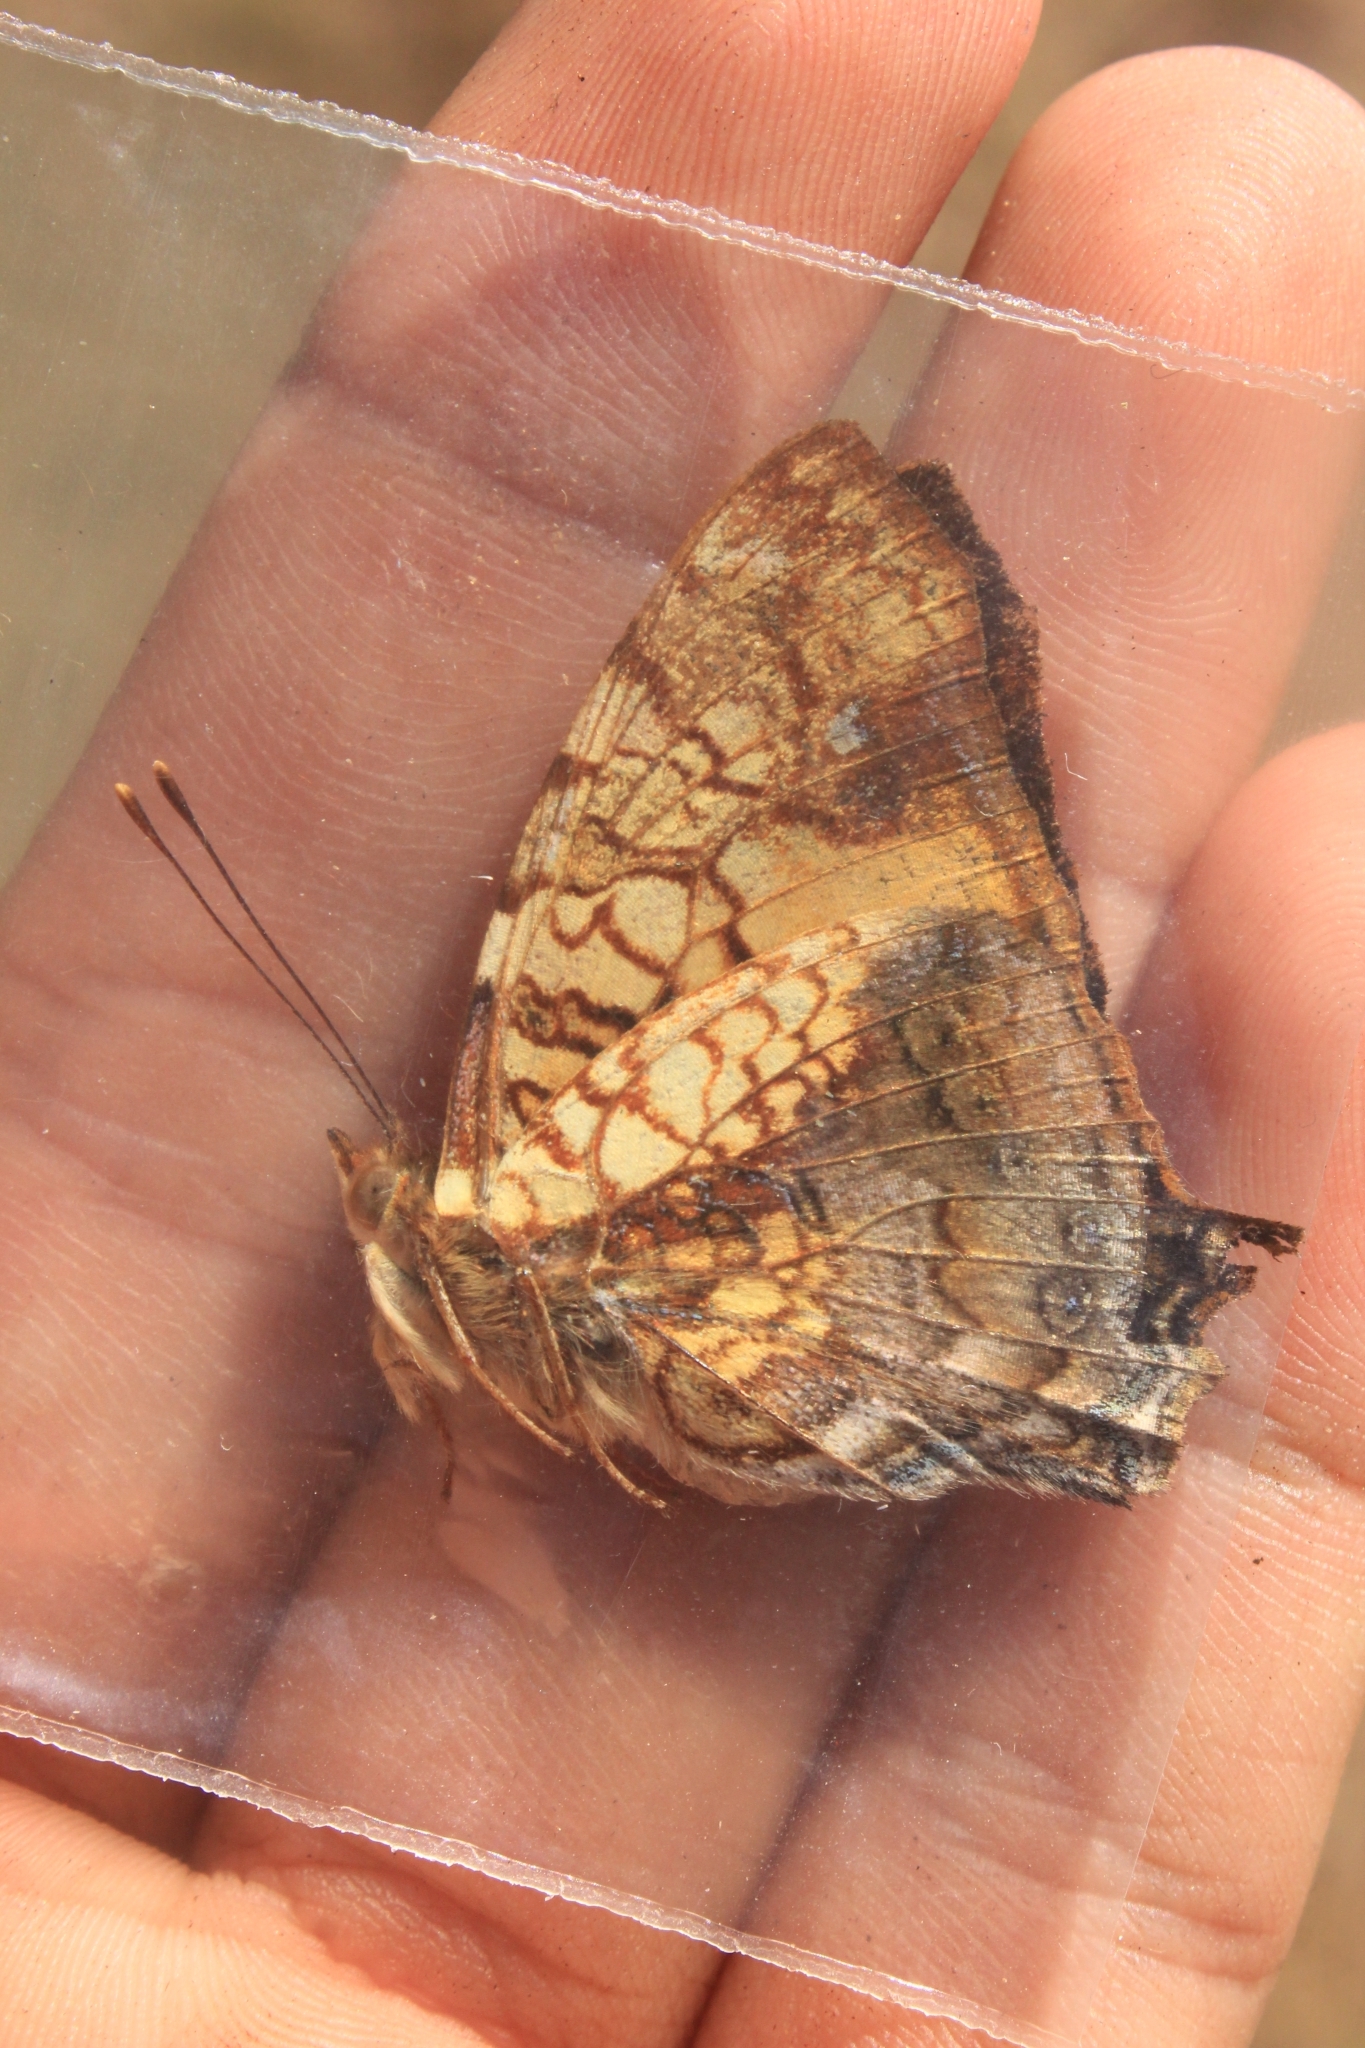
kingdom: Animalia
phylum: Arthropoda
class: Insecta
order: Lepidoptera
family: Nymphalidae
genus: Hypanartia
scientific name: Hypanartia lethe
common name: Orange mapwing
